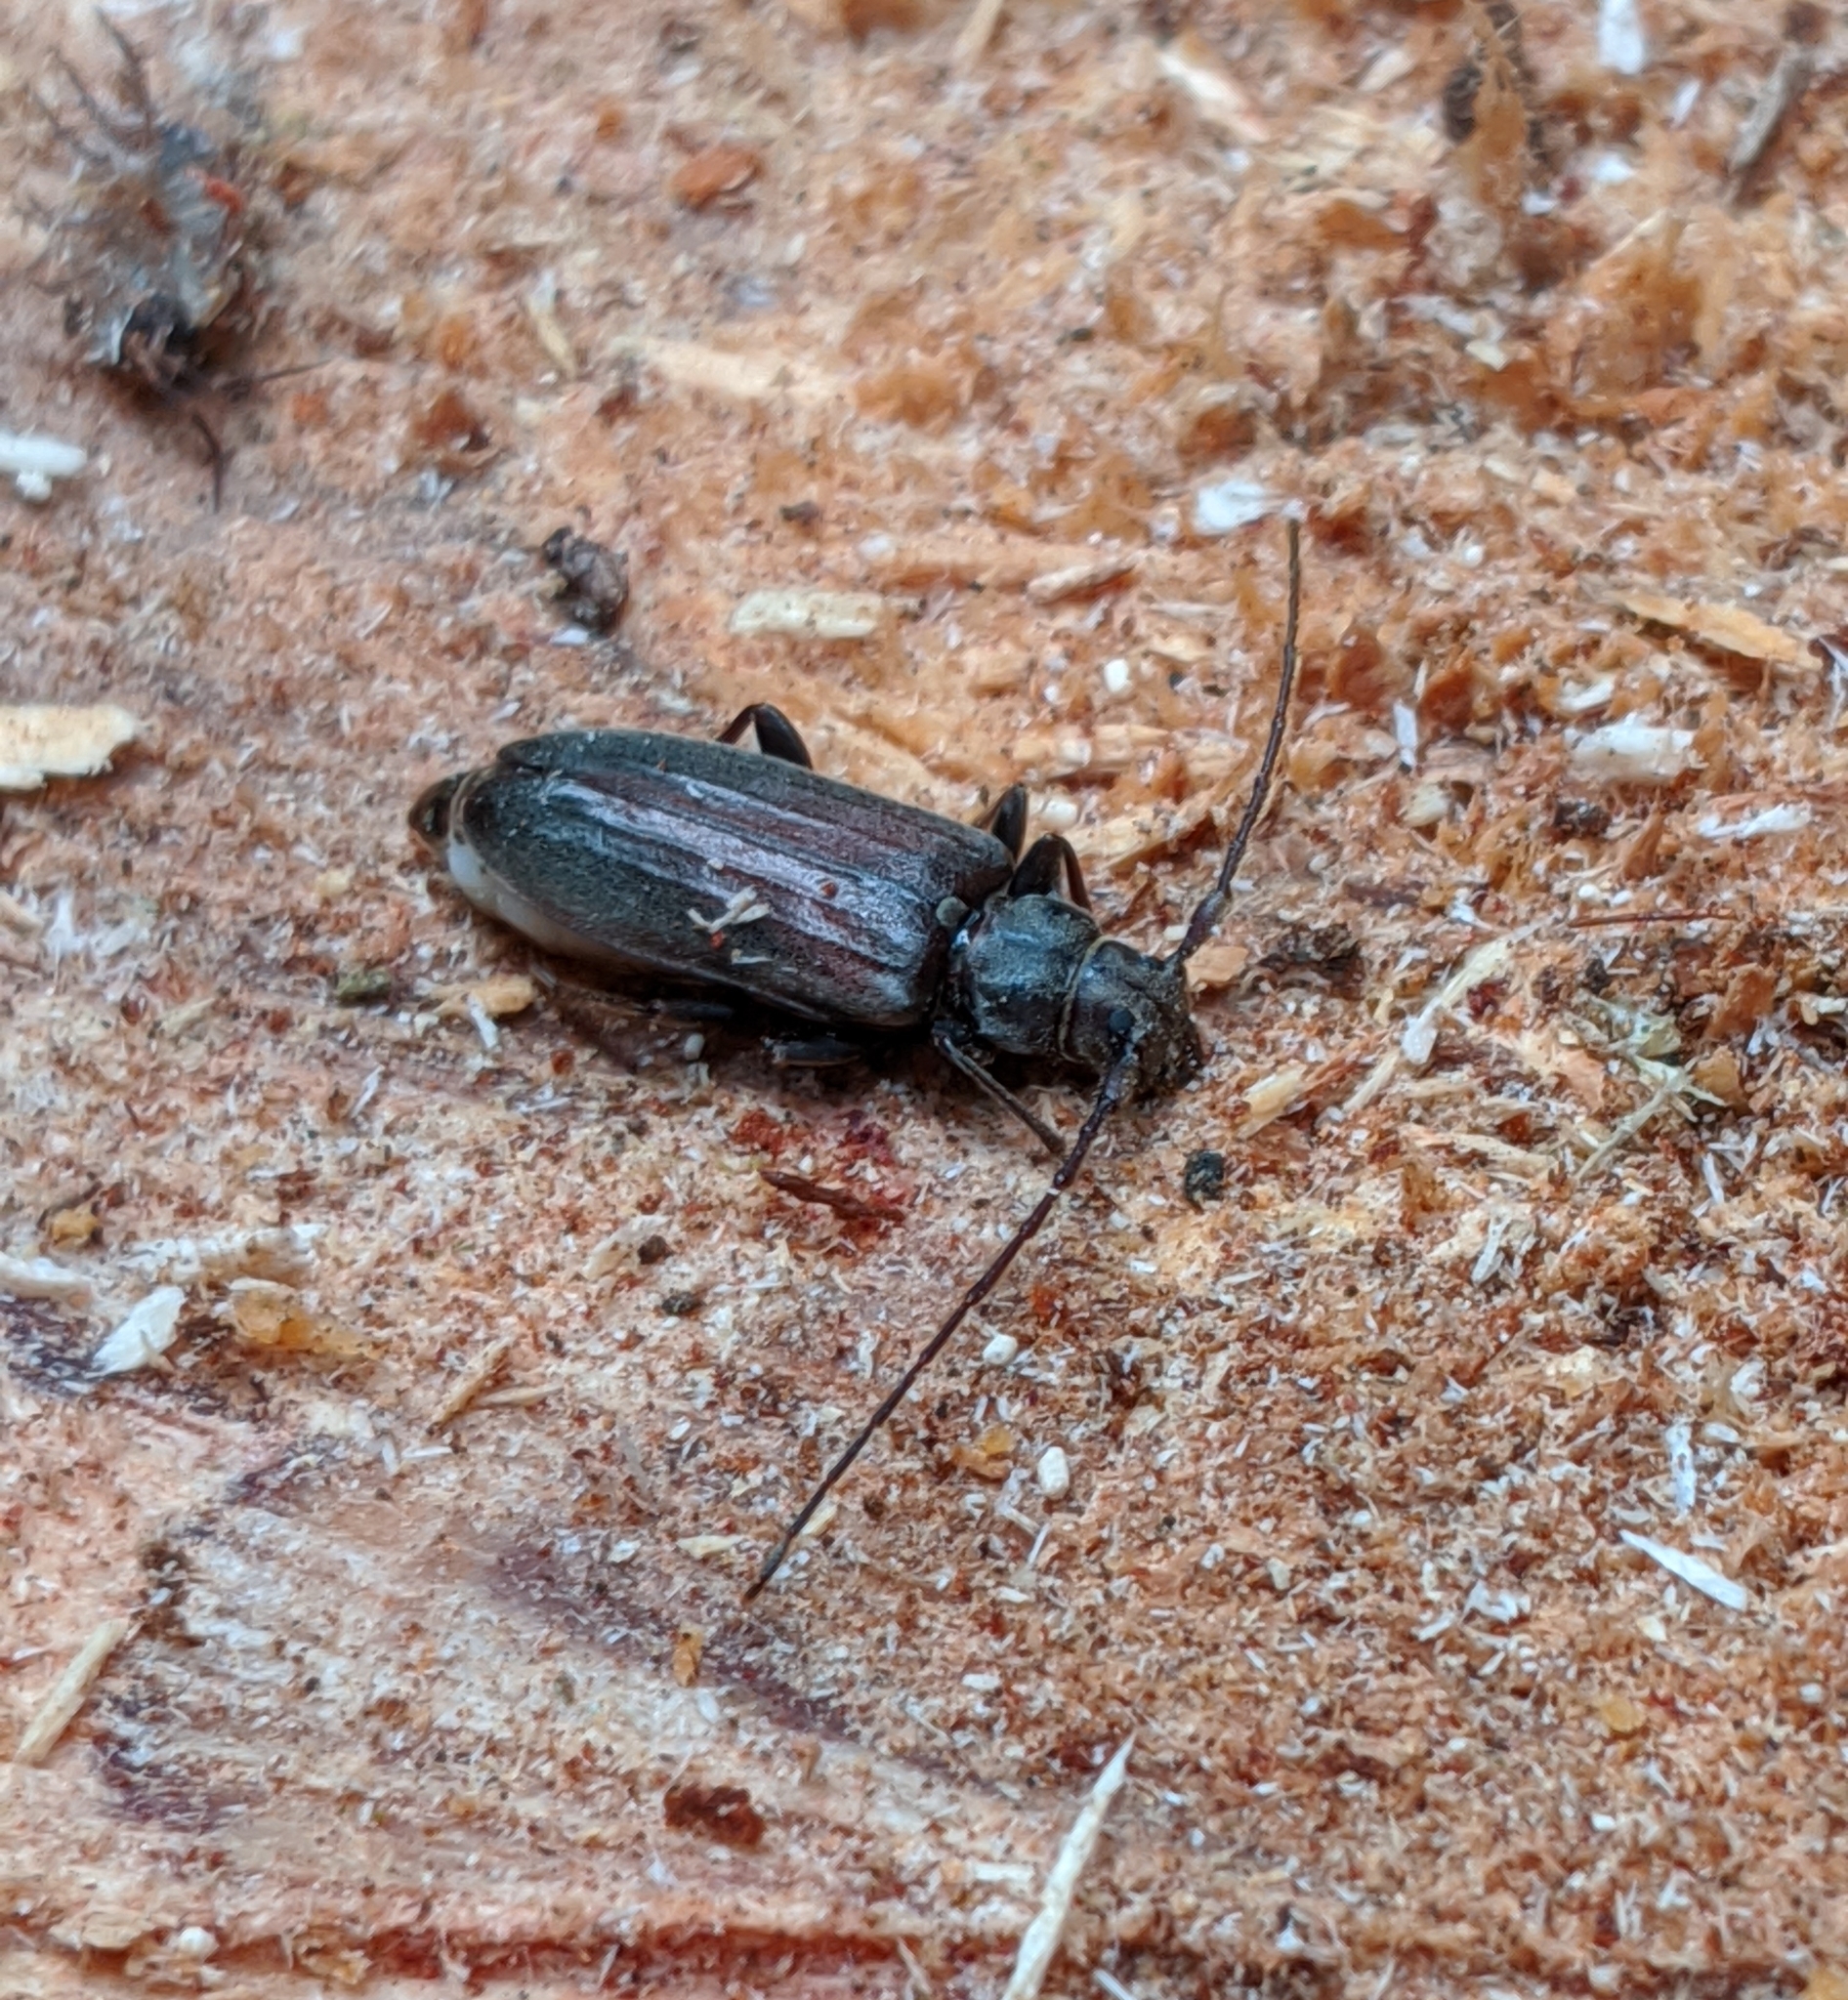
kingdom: Animalia
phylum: Arthropoda
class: Insecta
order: Coleoptera
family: Cerambycidae
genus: Opsimus
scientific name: Opsimus quadrilineatus
